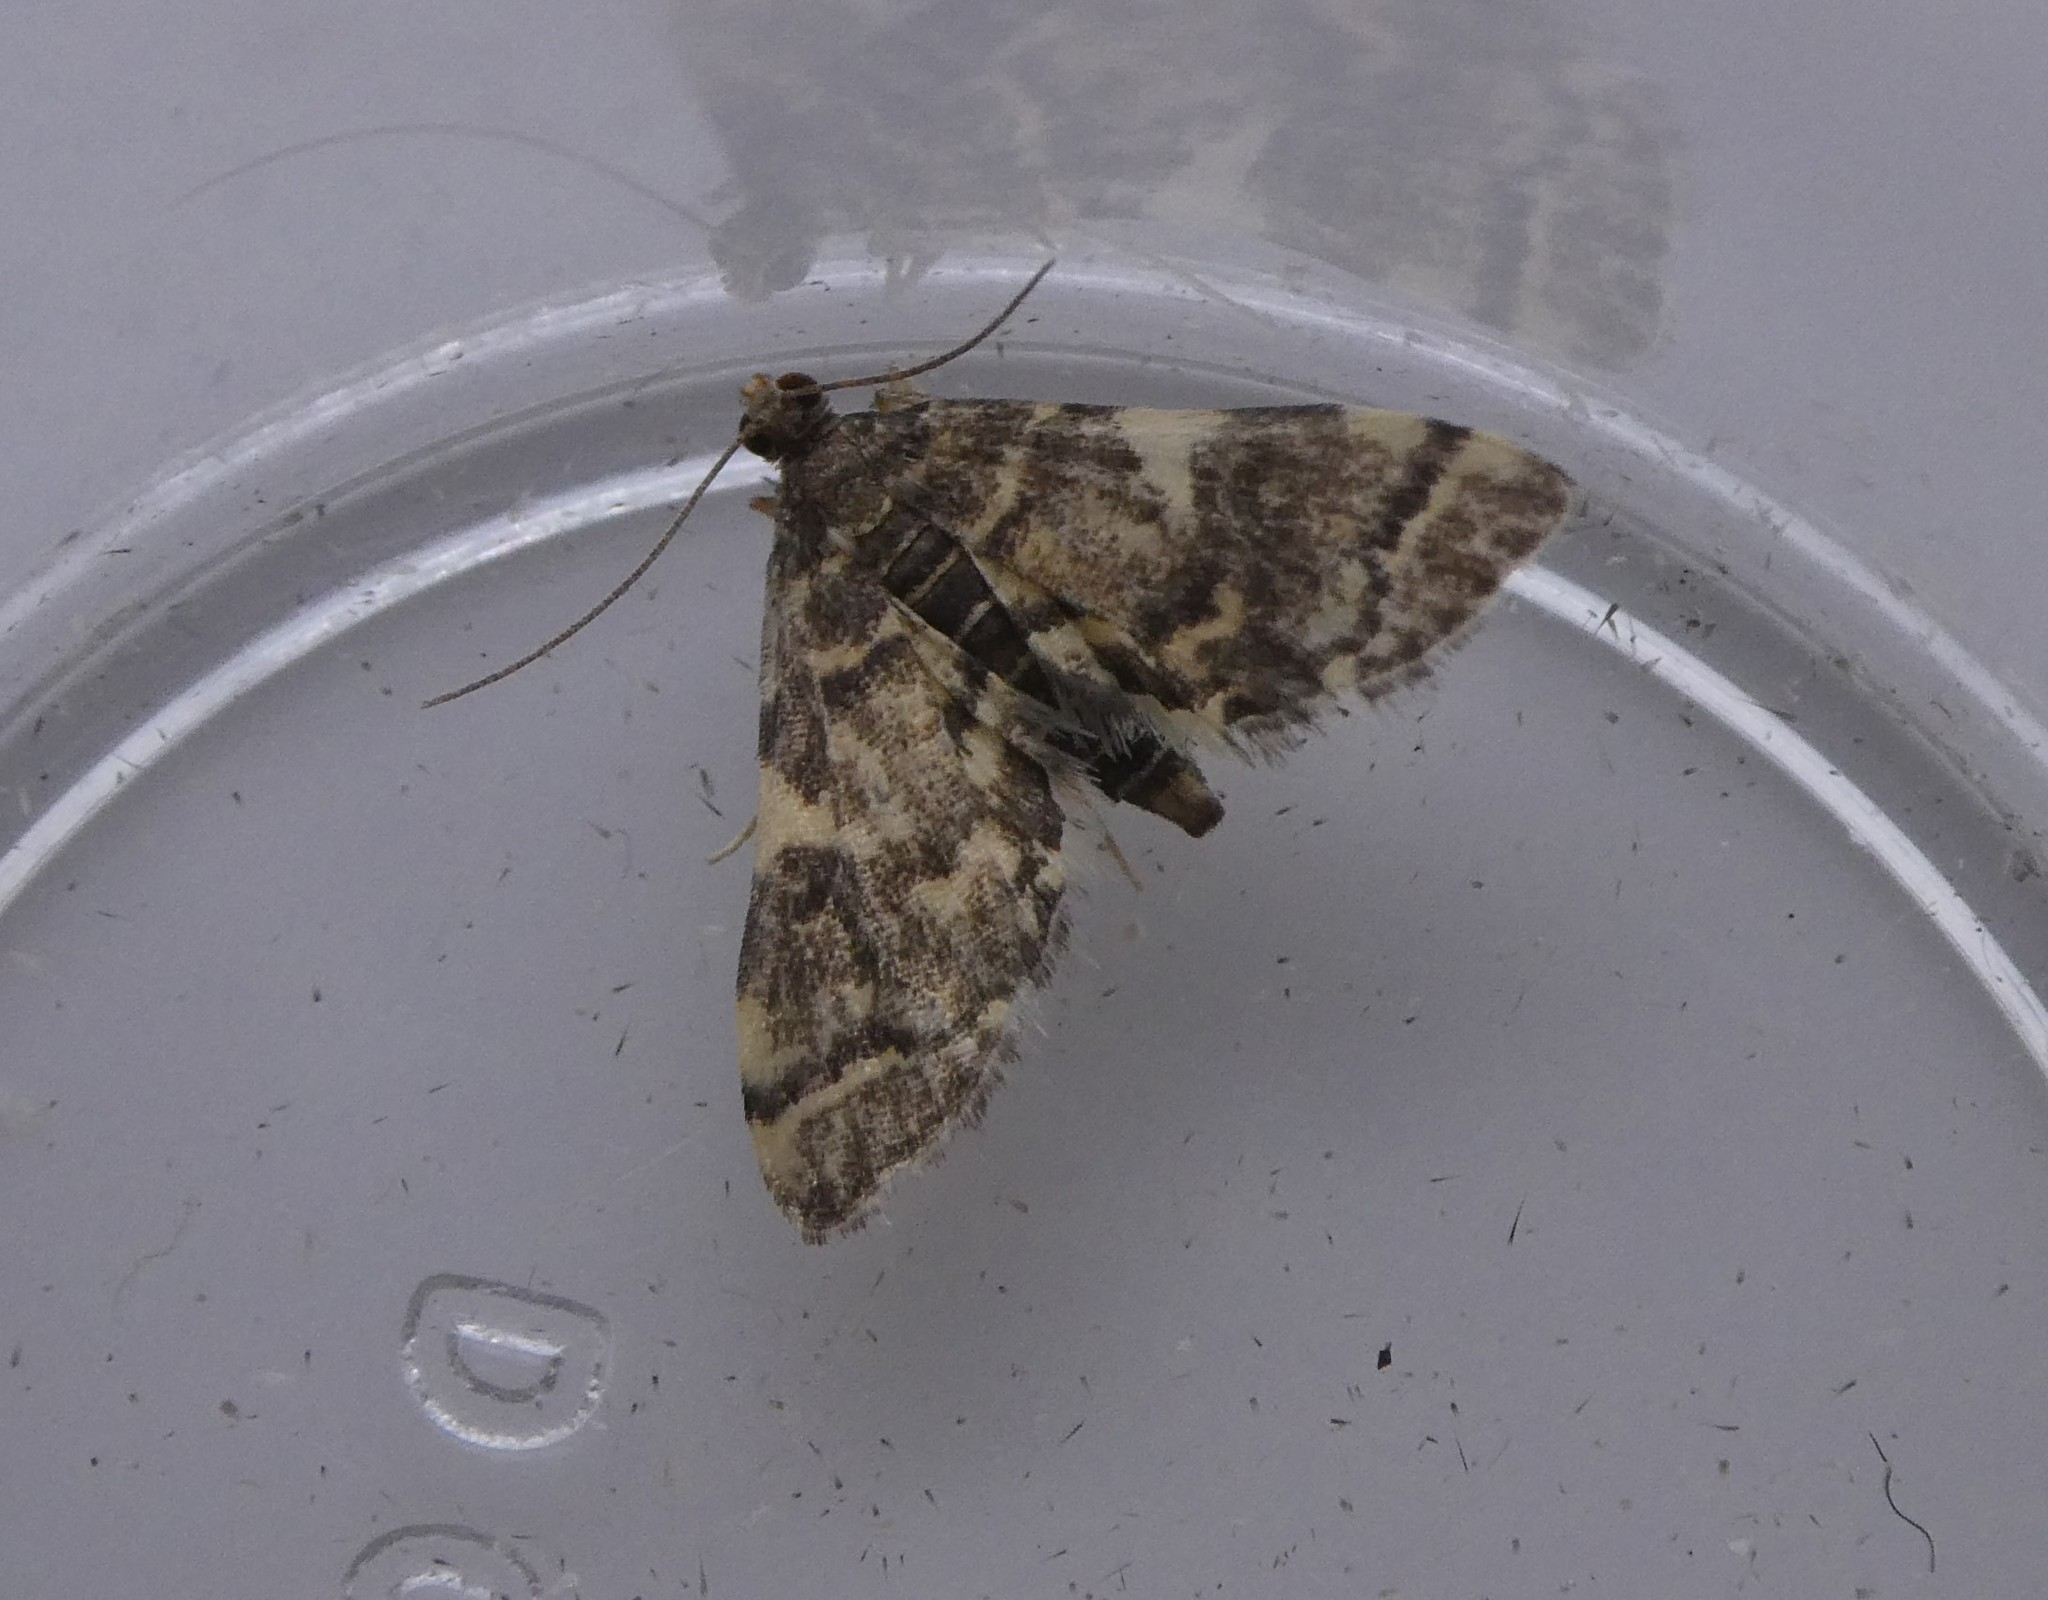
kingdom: Animalia
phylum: Arthropoda
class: Insecta
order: Lepidoptera
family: Crambidae
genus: Anageshna
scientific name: Anageshna primordialis
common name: Yellow-spotted webworm moth
